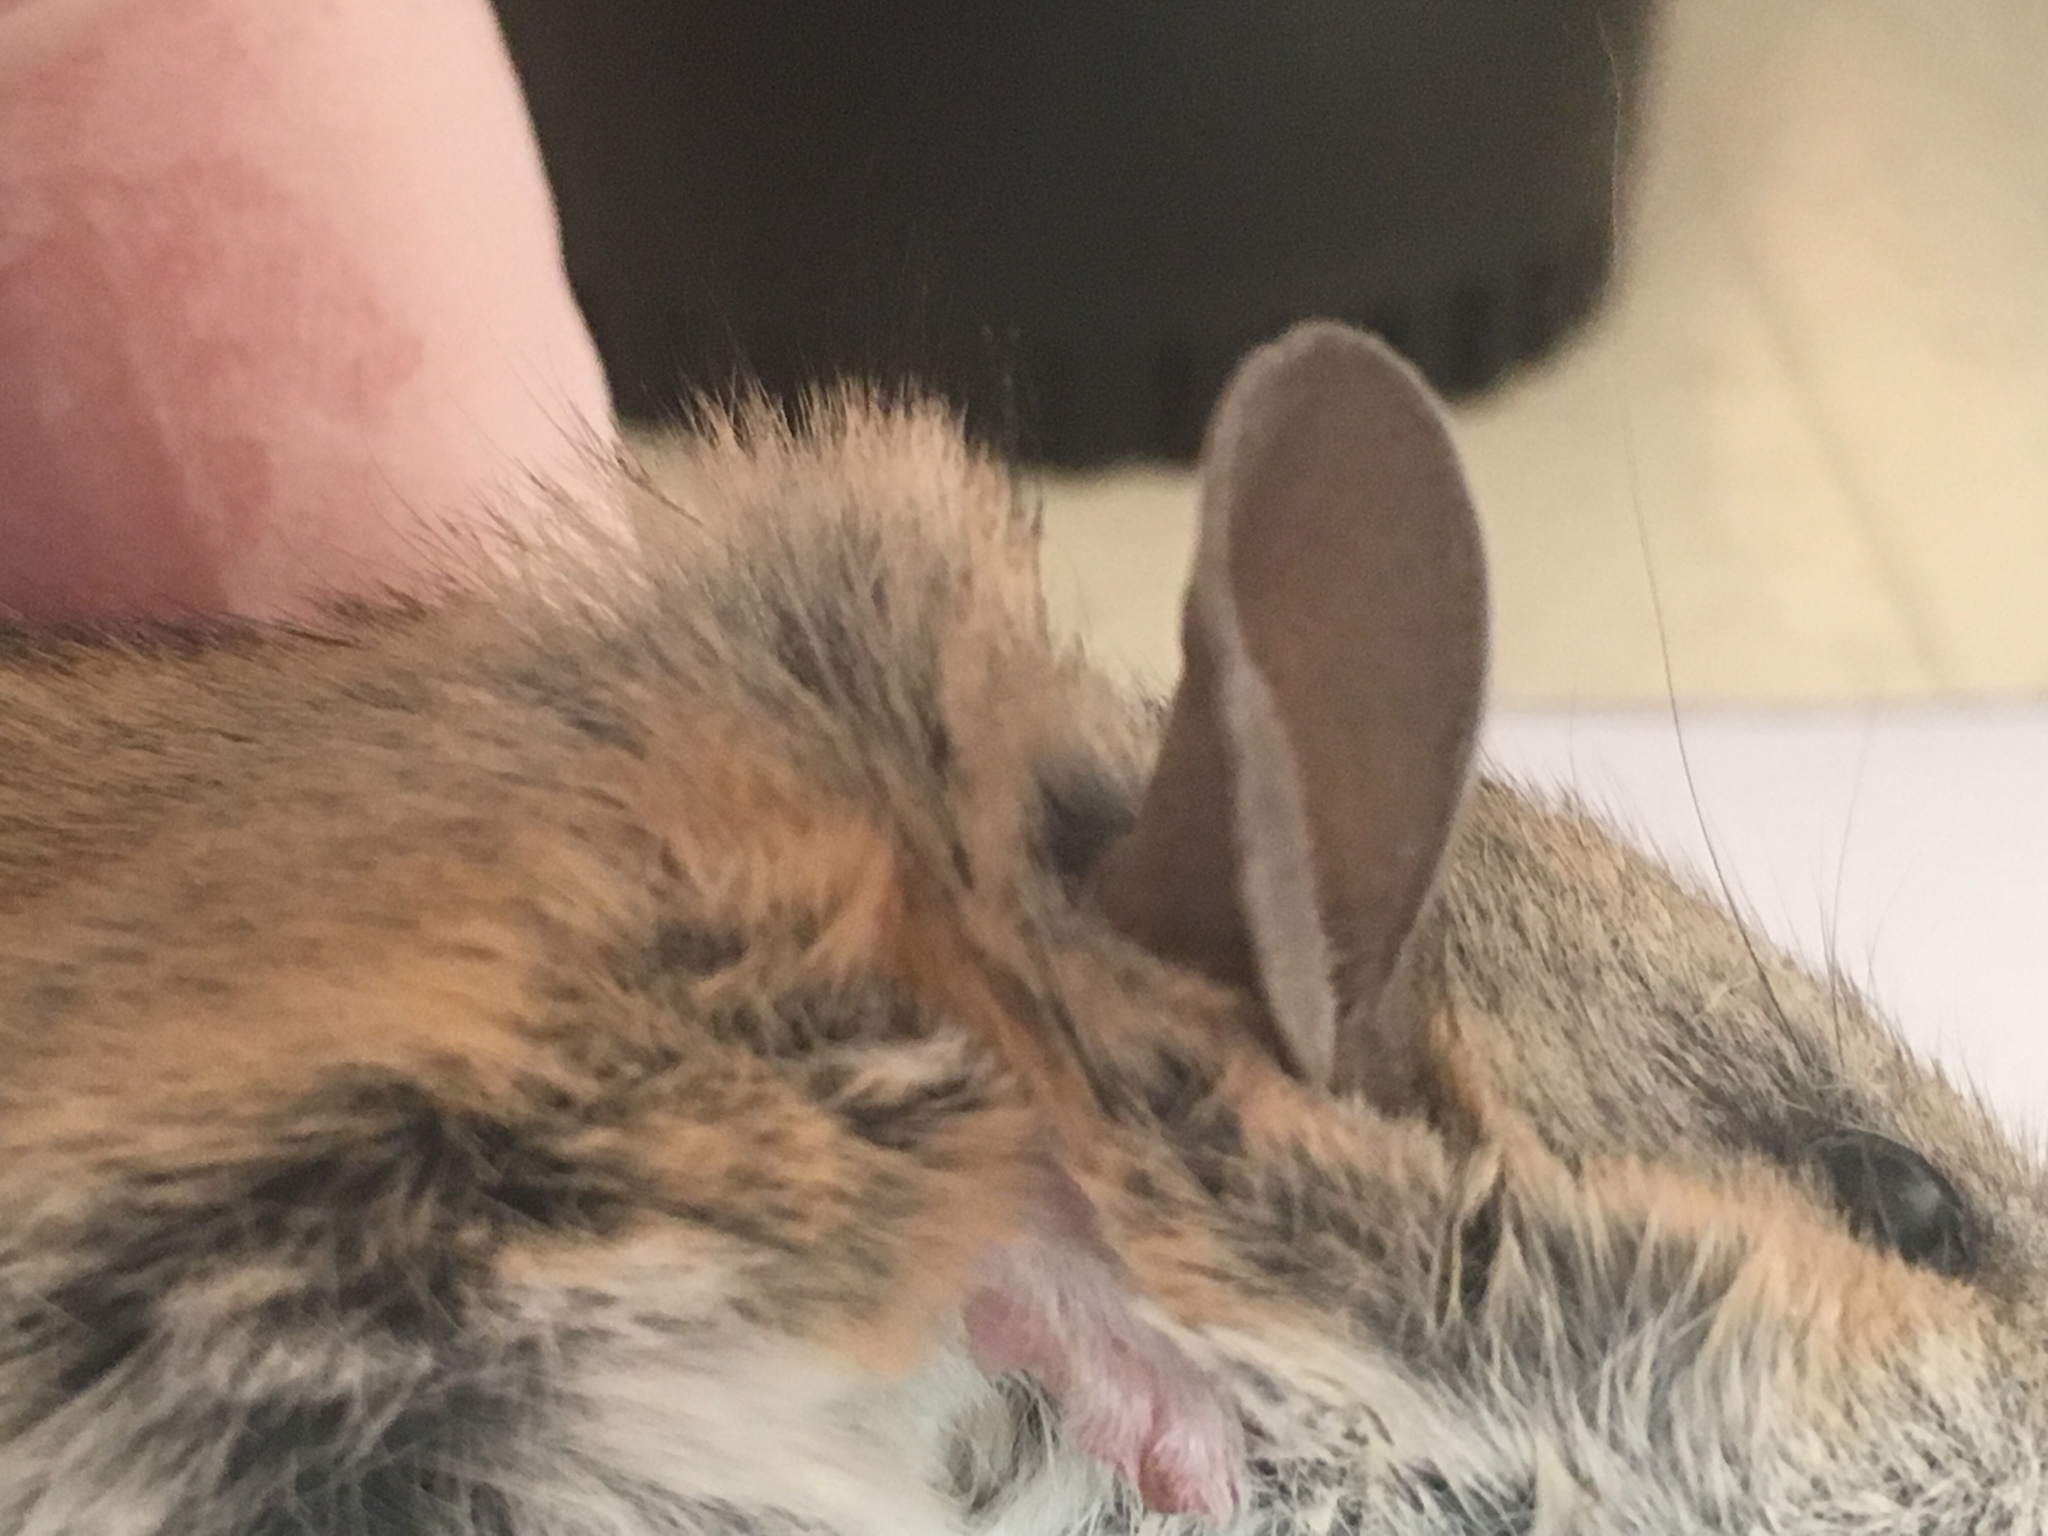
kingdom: Animalia
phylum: Chordata
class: Mammalia
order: Rodentia
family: Cricetidae
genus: Peromyscus
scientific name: Peromyscus eremicus
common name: Cactus deermouse
